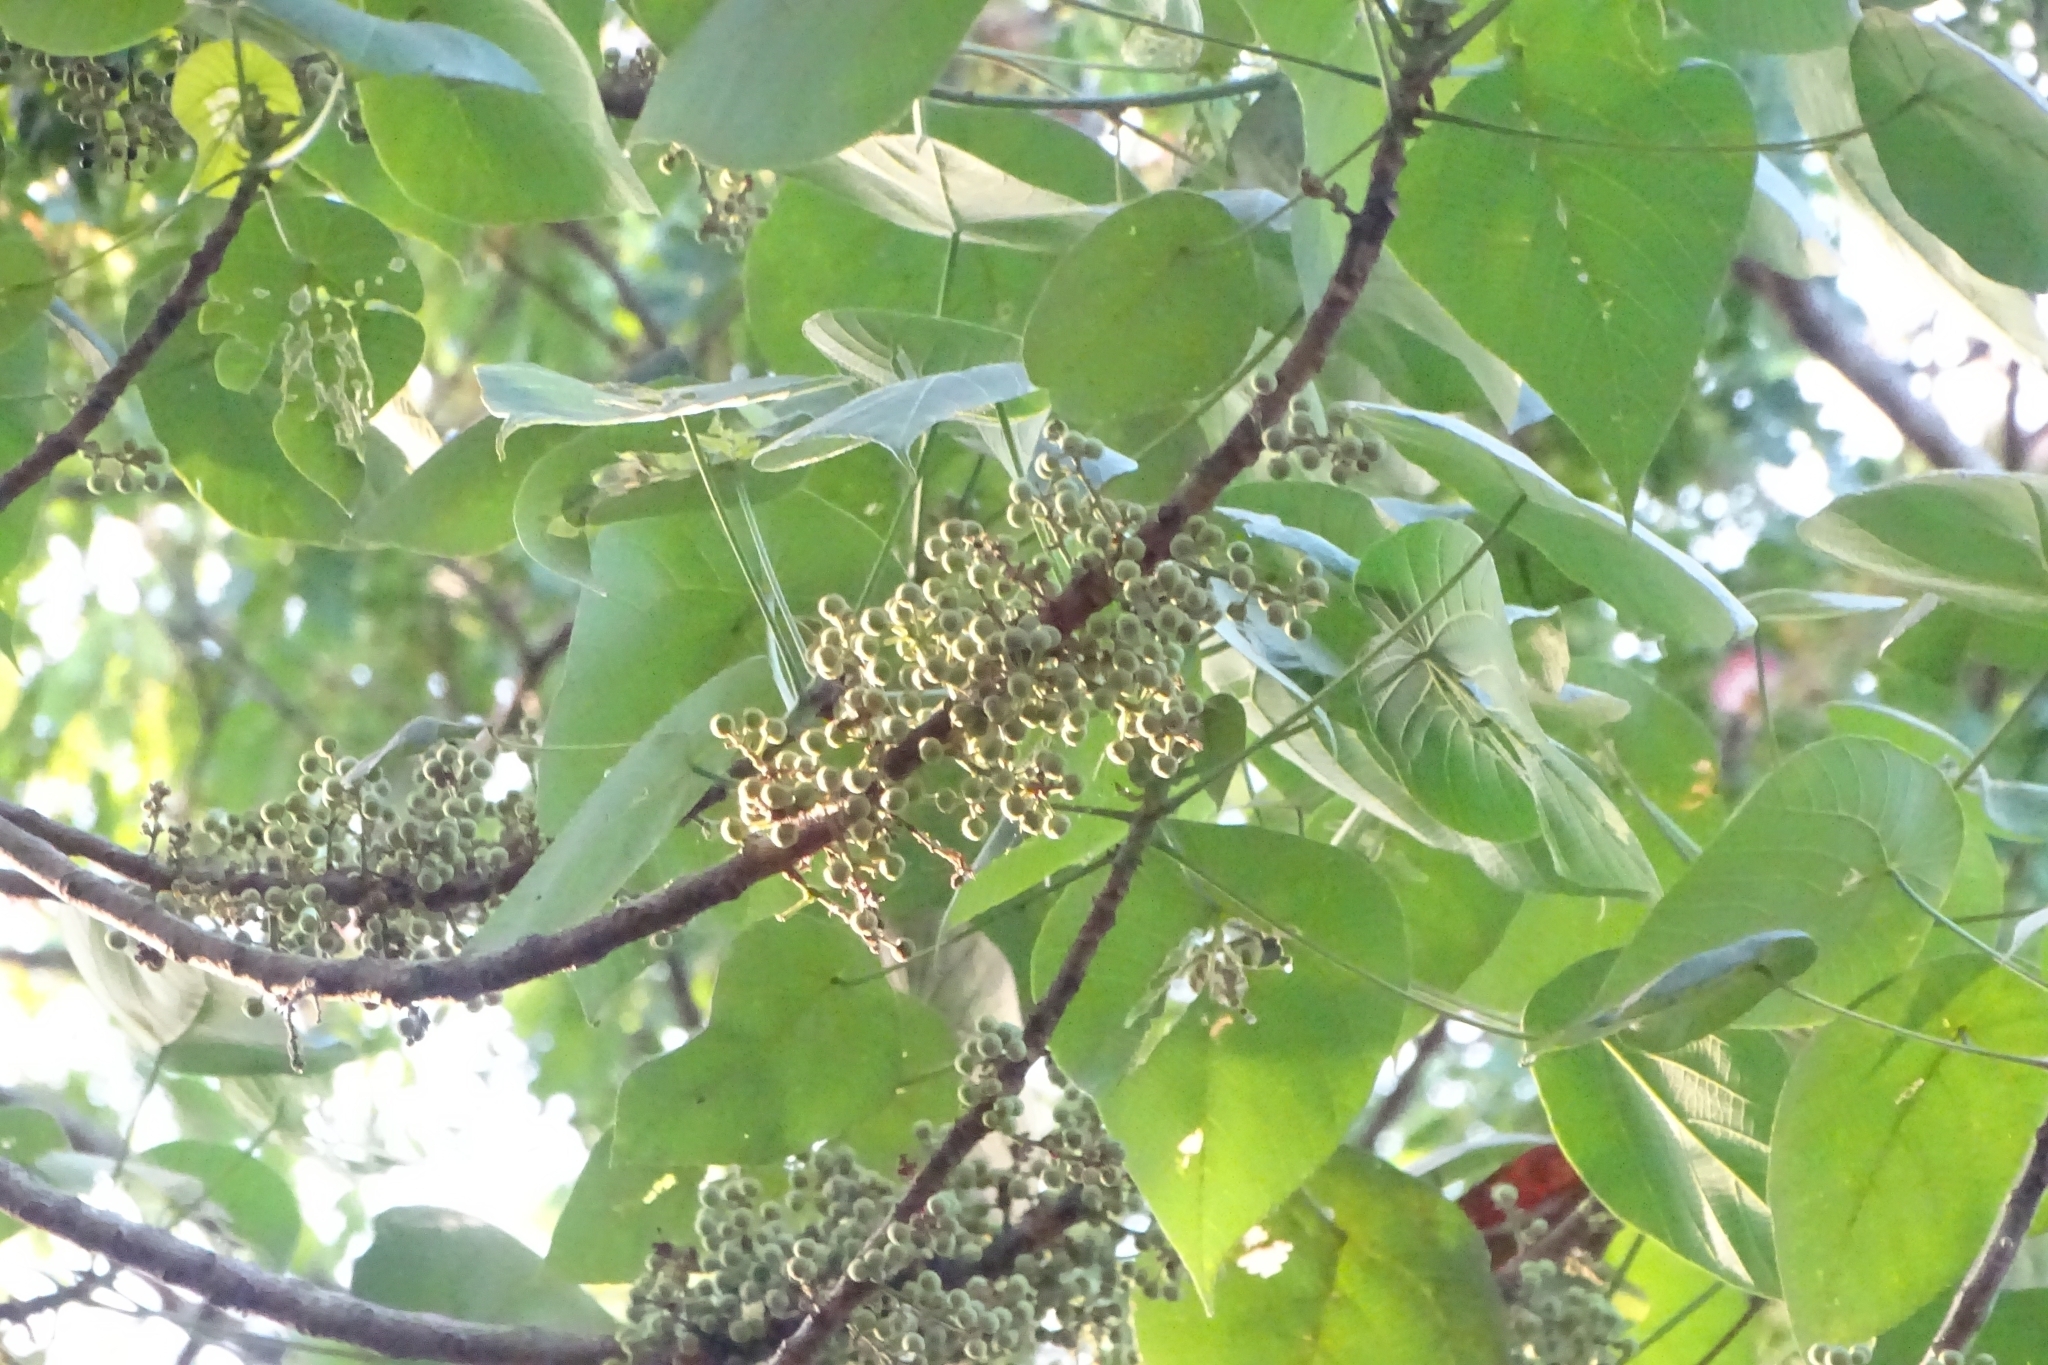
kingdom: Plantae
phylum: Tracheophyta
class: Magnoliopsida
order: Malpighiales
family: Euphorbiaceae
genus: Macaranga
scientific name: Macaranga peltata
